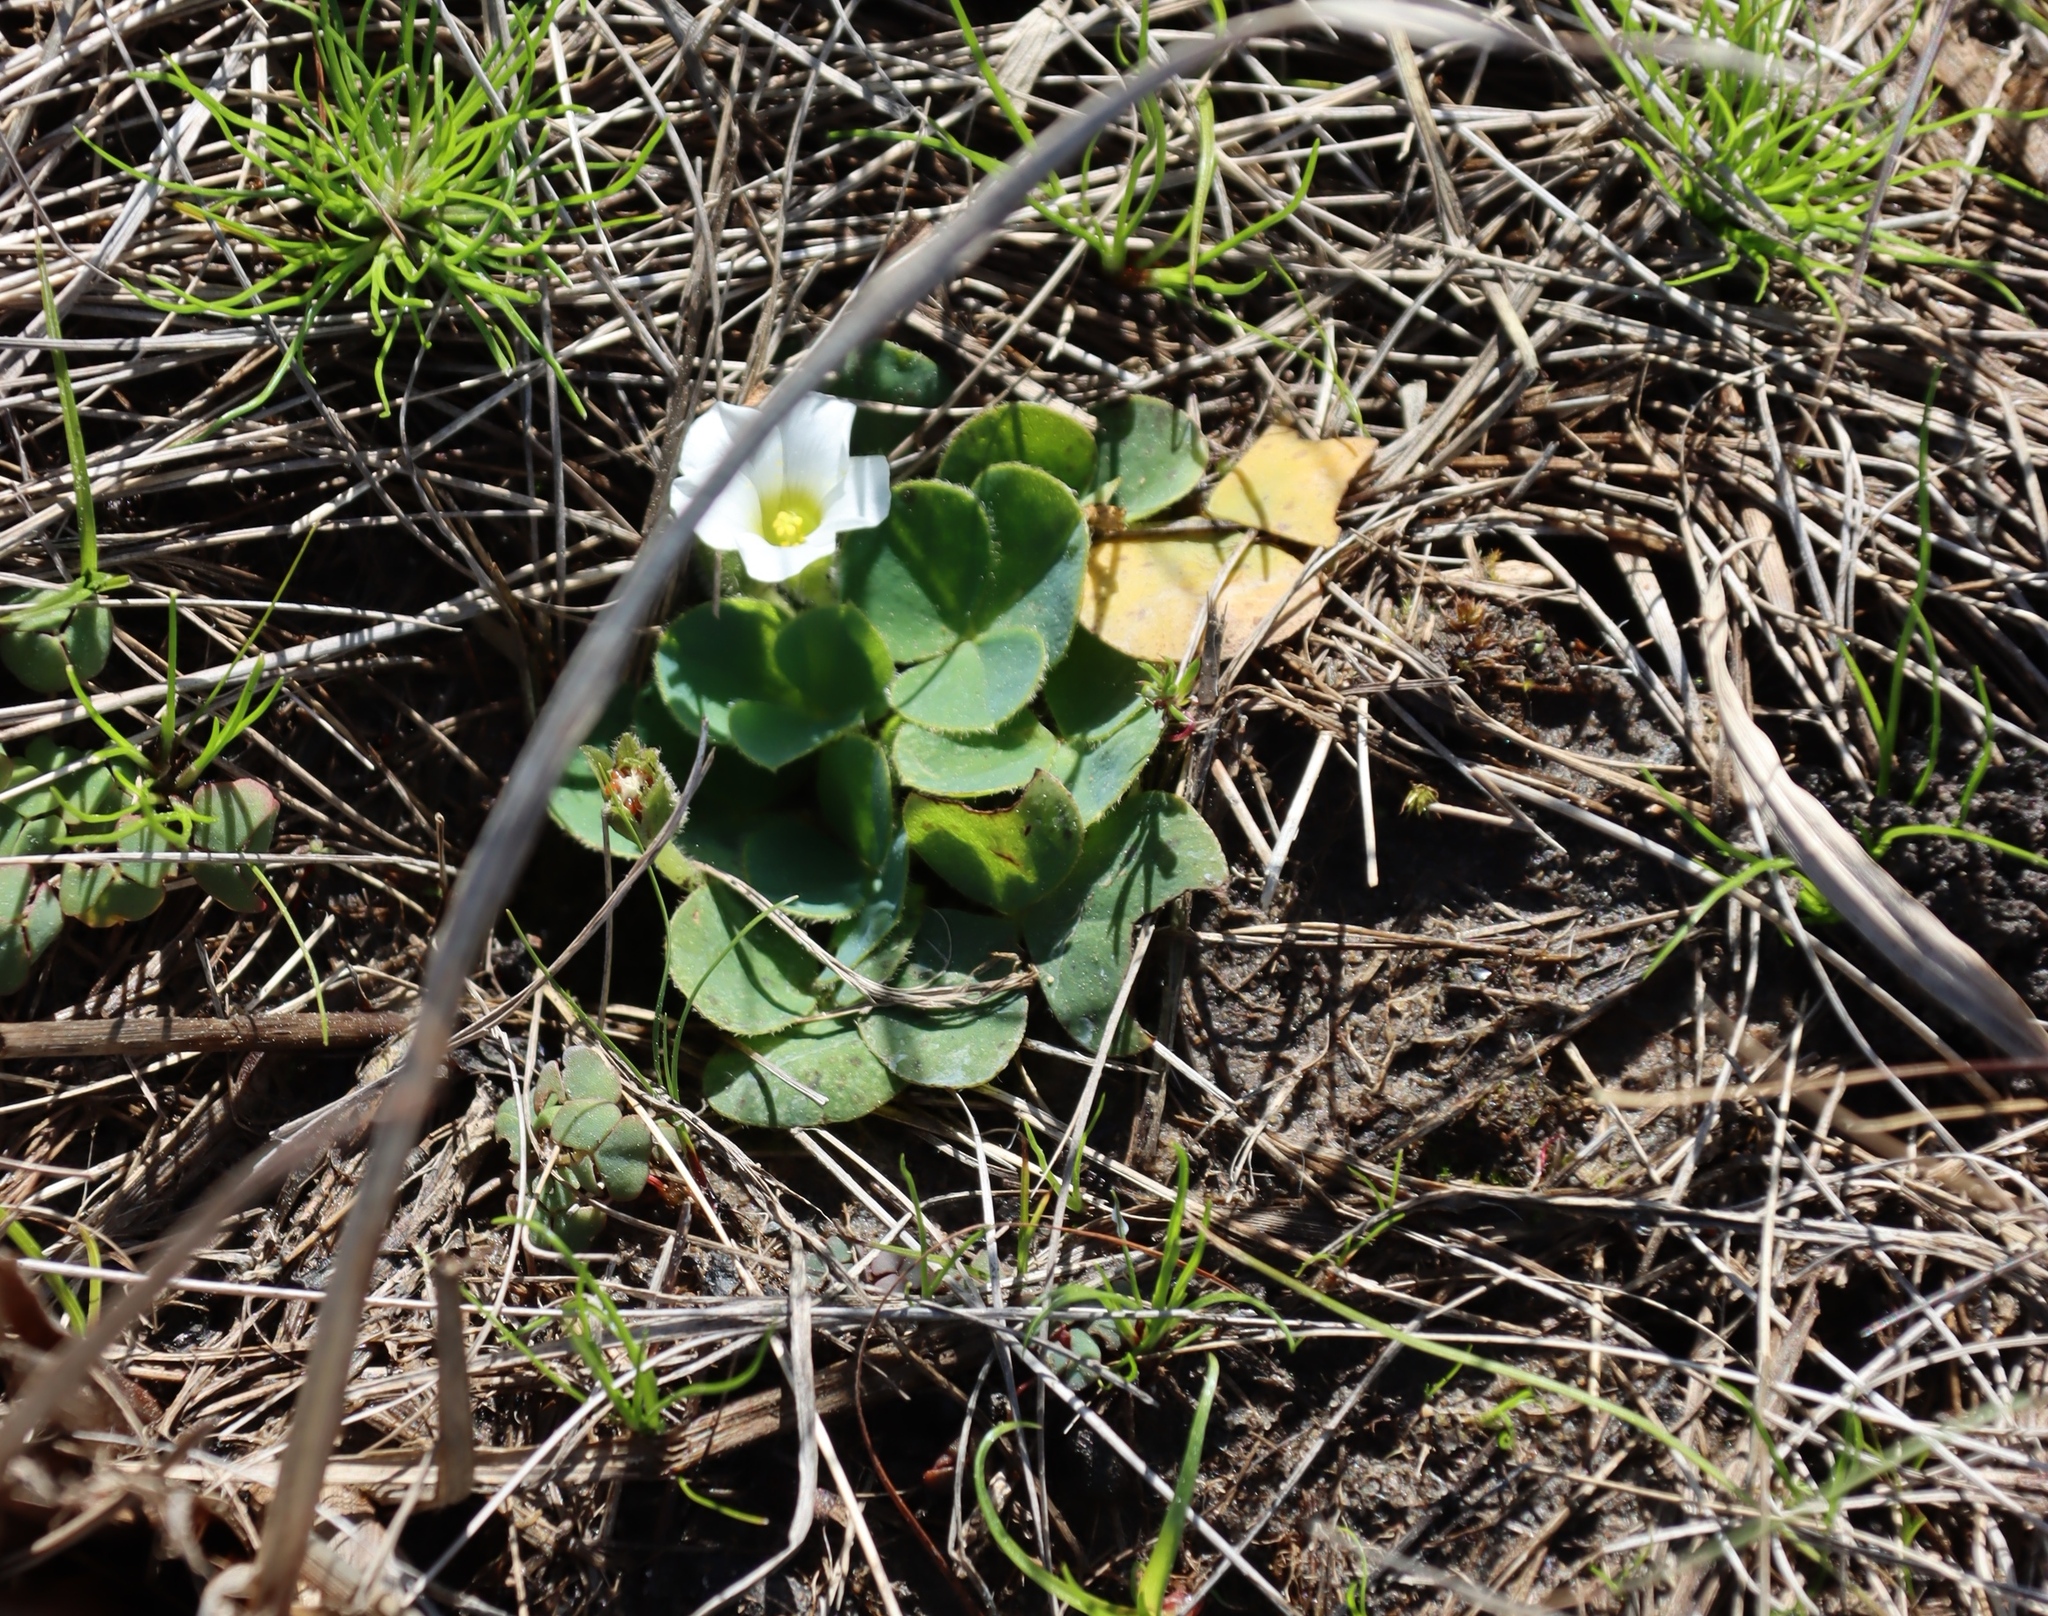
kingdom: Plantae
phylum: Tracheophyta
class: Magnoliopsida
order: Oxalidales
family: Oxalidaceae
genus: Oxalis
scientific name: Oxalis purpurea
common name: Purple woodsorrel
